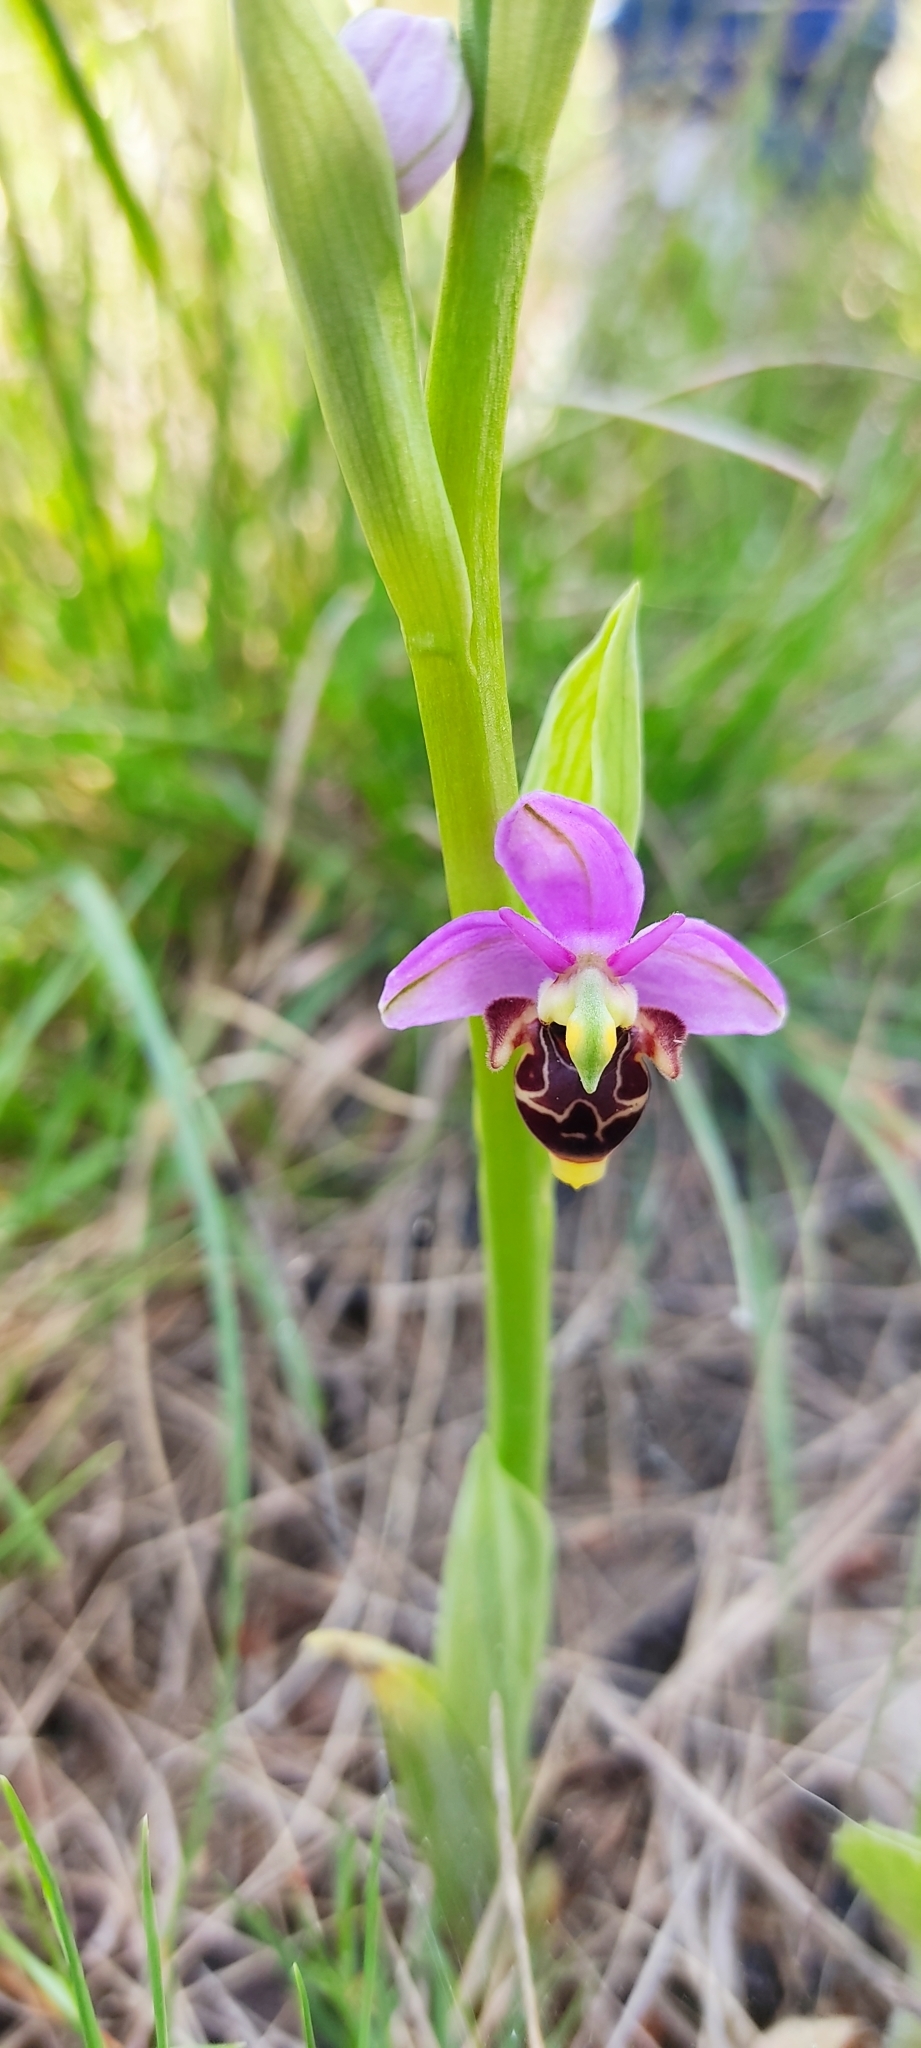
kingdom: Plantae
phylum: Tracheophyta
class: Liliopsida
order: Asparagales
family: Orchidaceae
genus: Ophrys
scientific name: Ophrys scolopax
